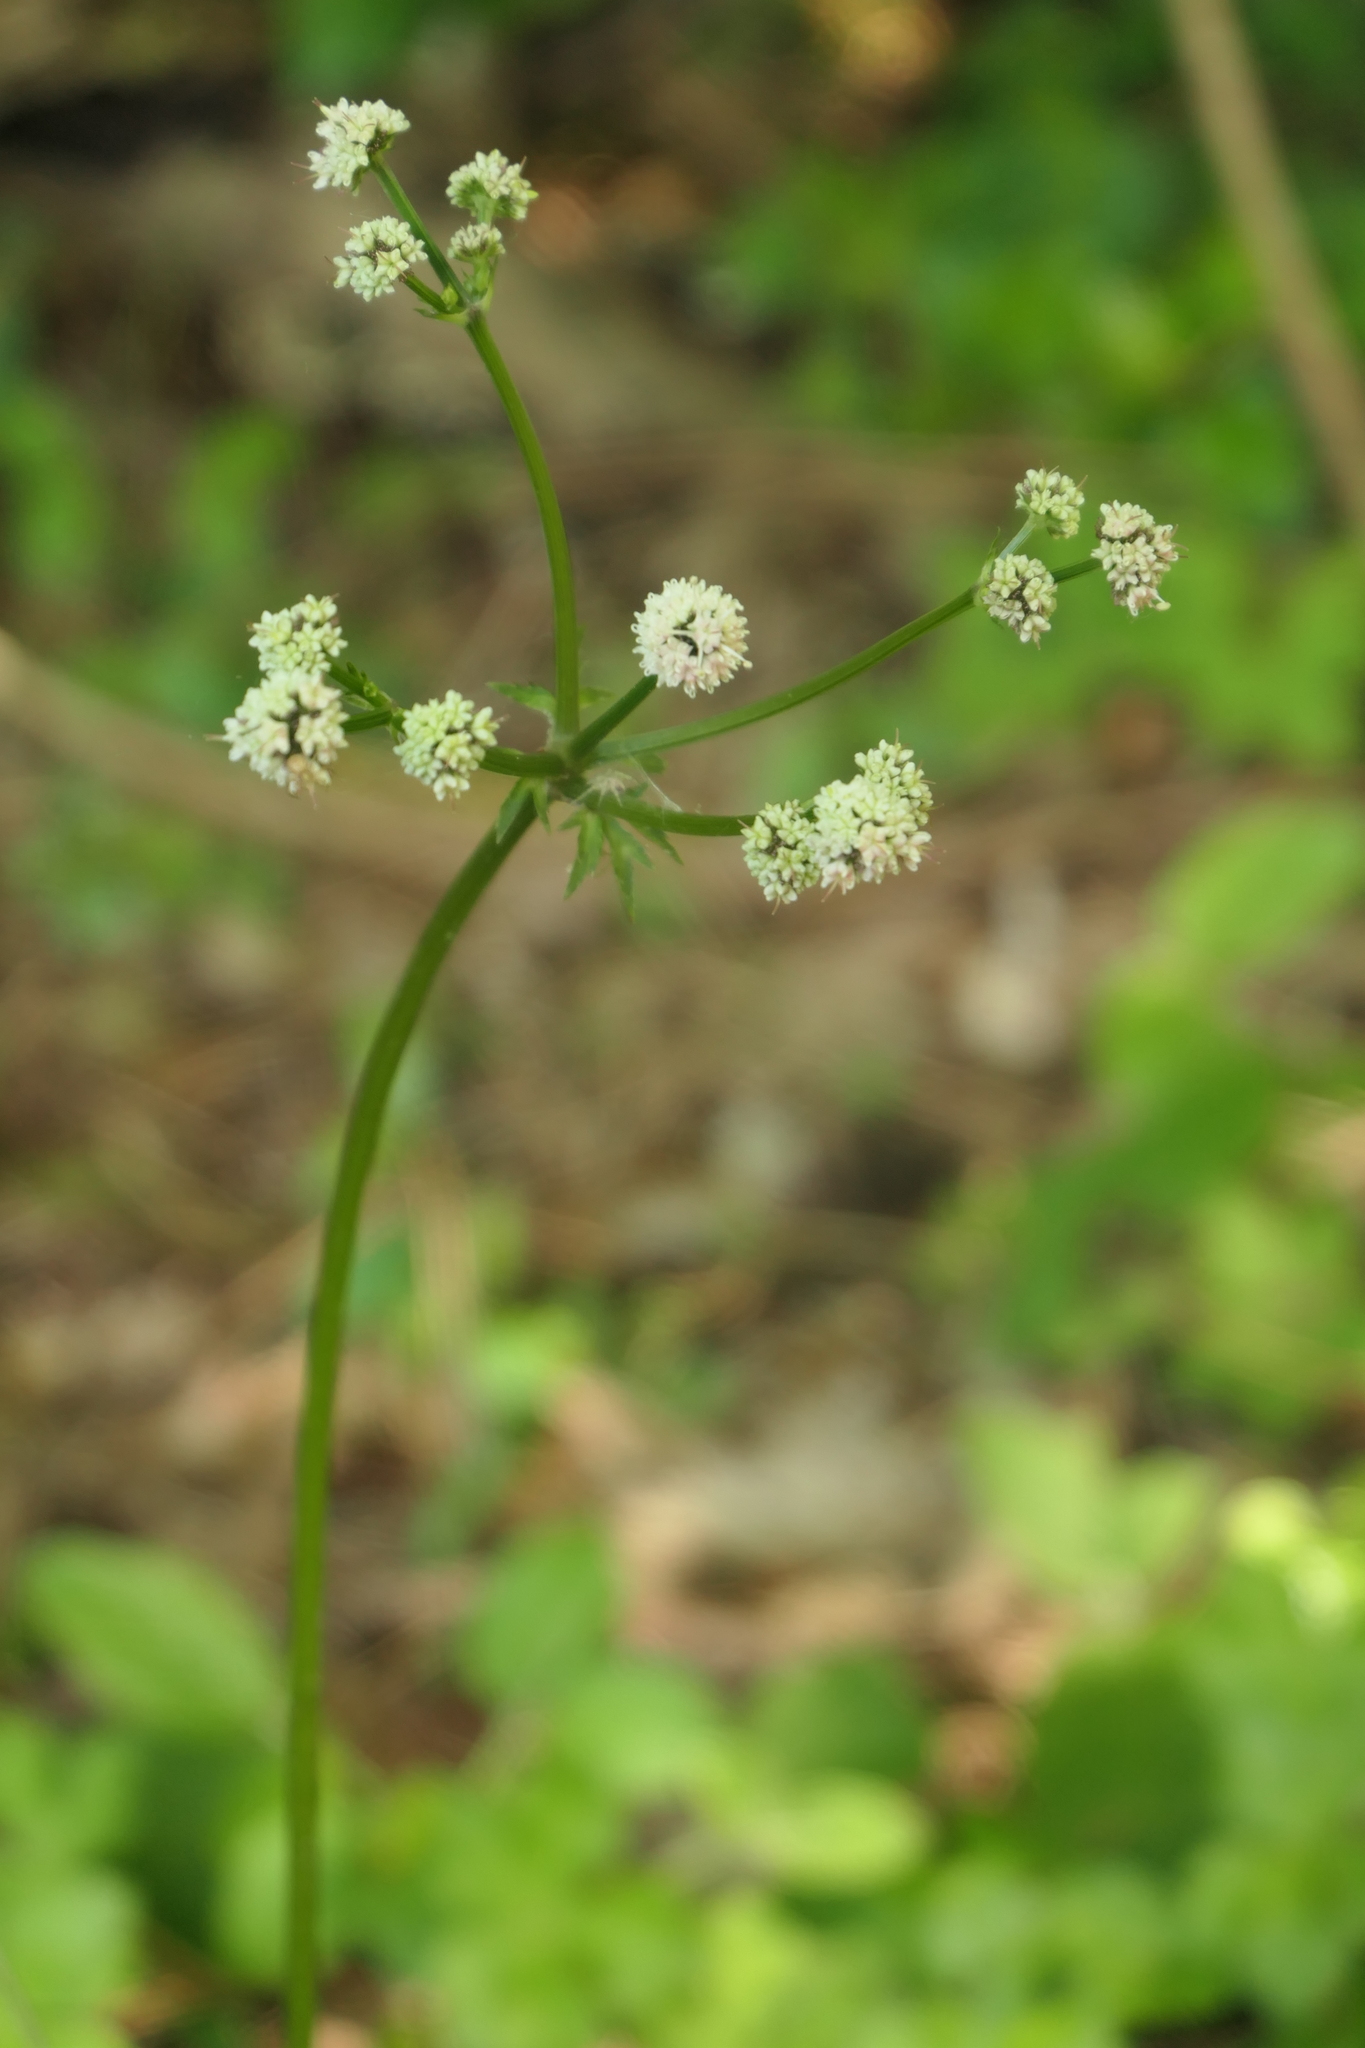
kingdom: Plantae
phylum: Tracheophyta
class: Magnoliopsida
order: Apiales
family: Apiaceae
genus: Sanicula
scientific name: Sanicula europaea
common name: Sanicle
